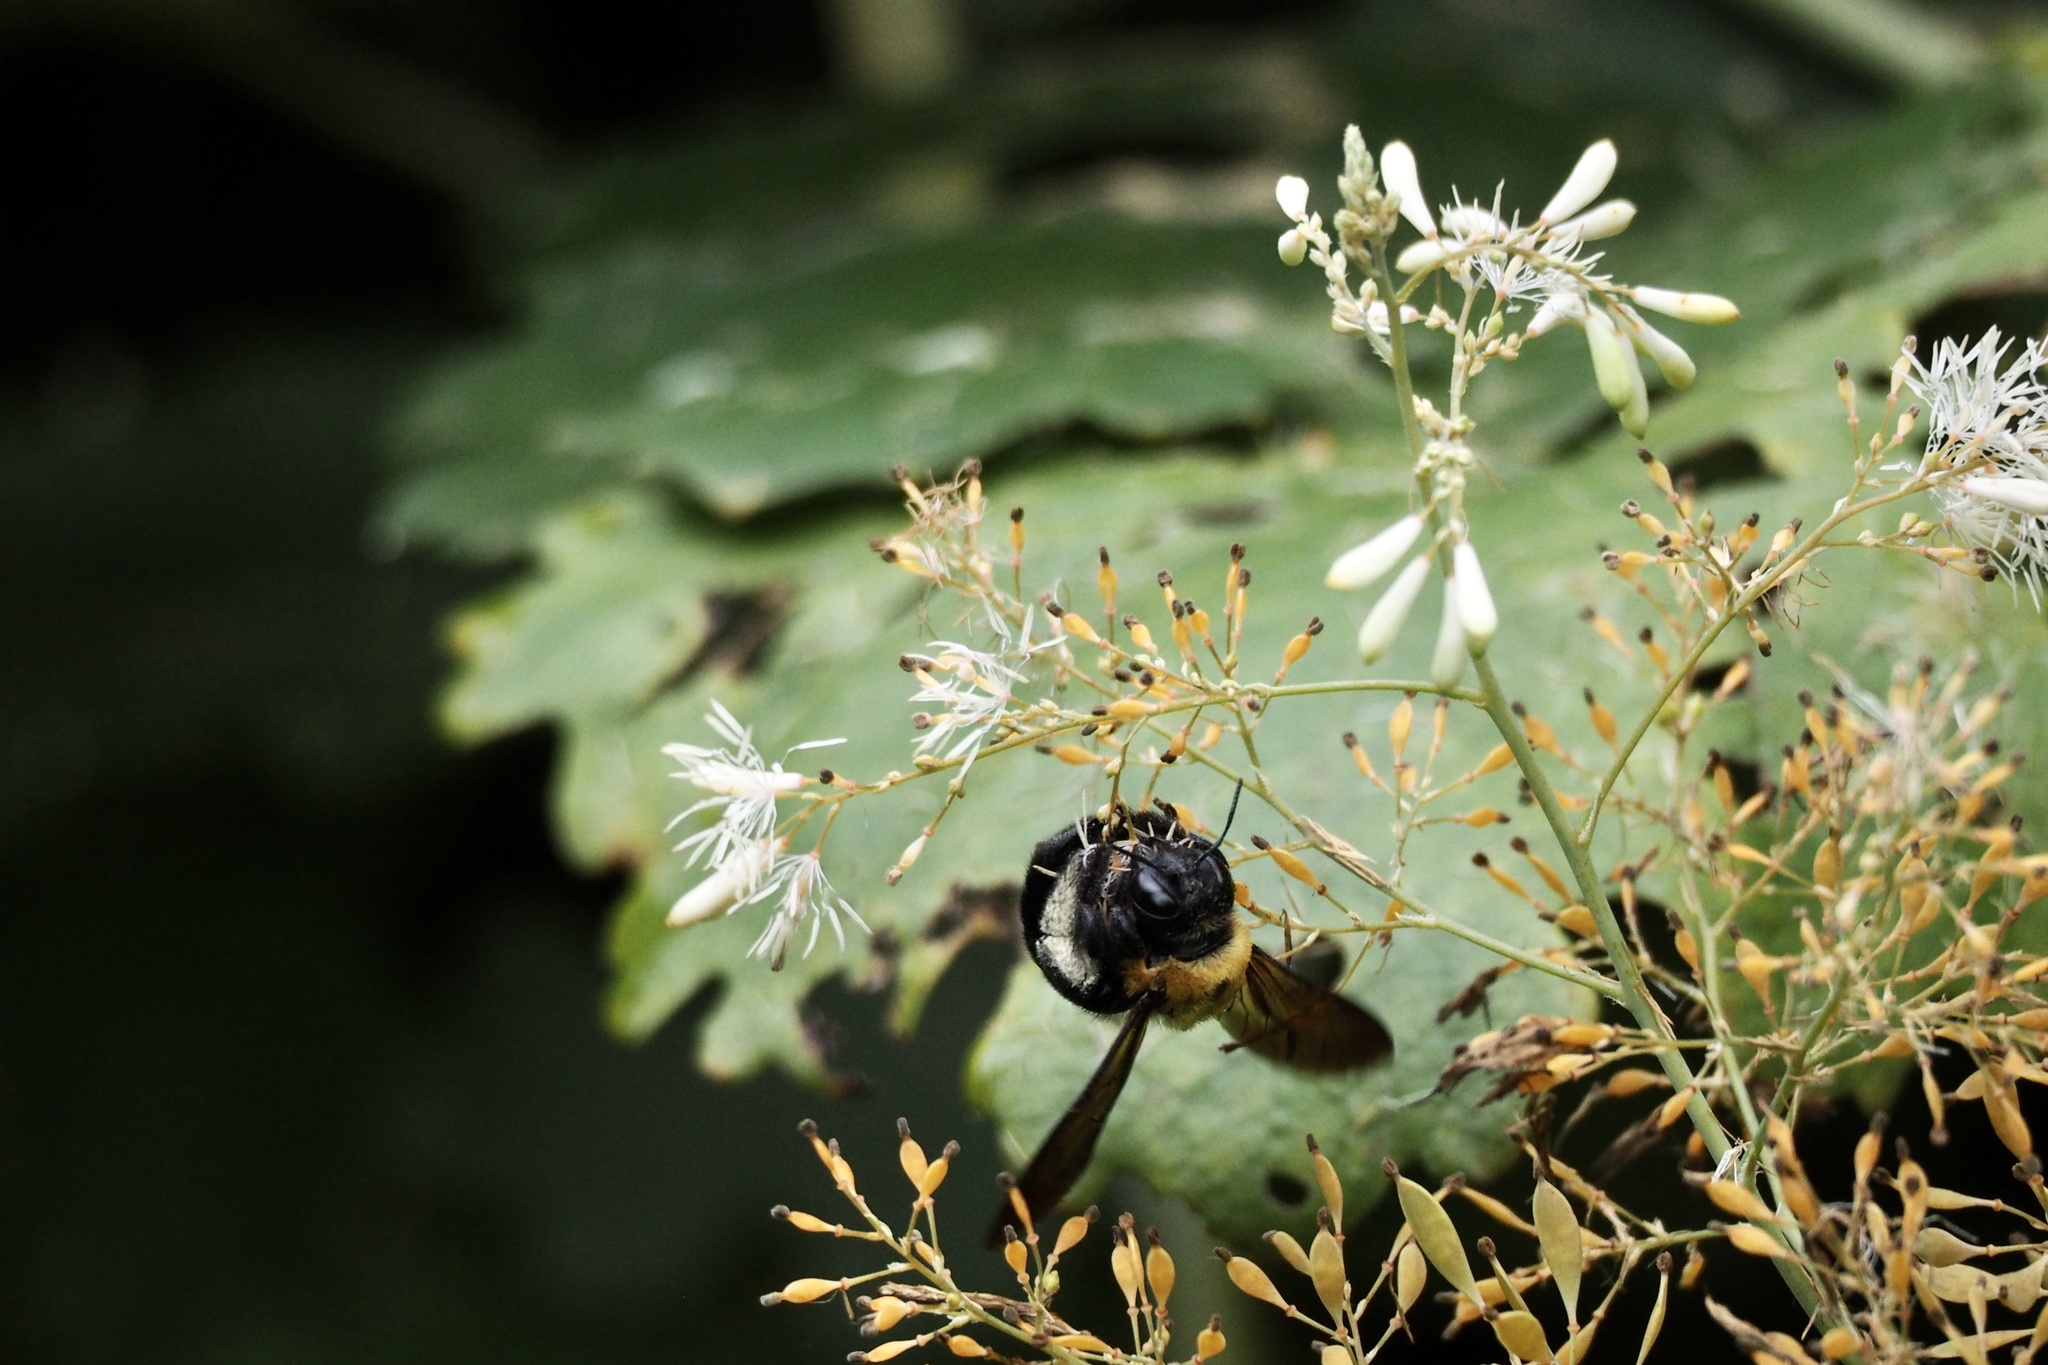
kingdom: Plantae
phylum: Tracheophyta
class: Magnoliopsida
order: Ranunculales
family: Papaveraceae
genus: Macleaya
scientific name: Macleaya cordata
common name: Plume poppy
